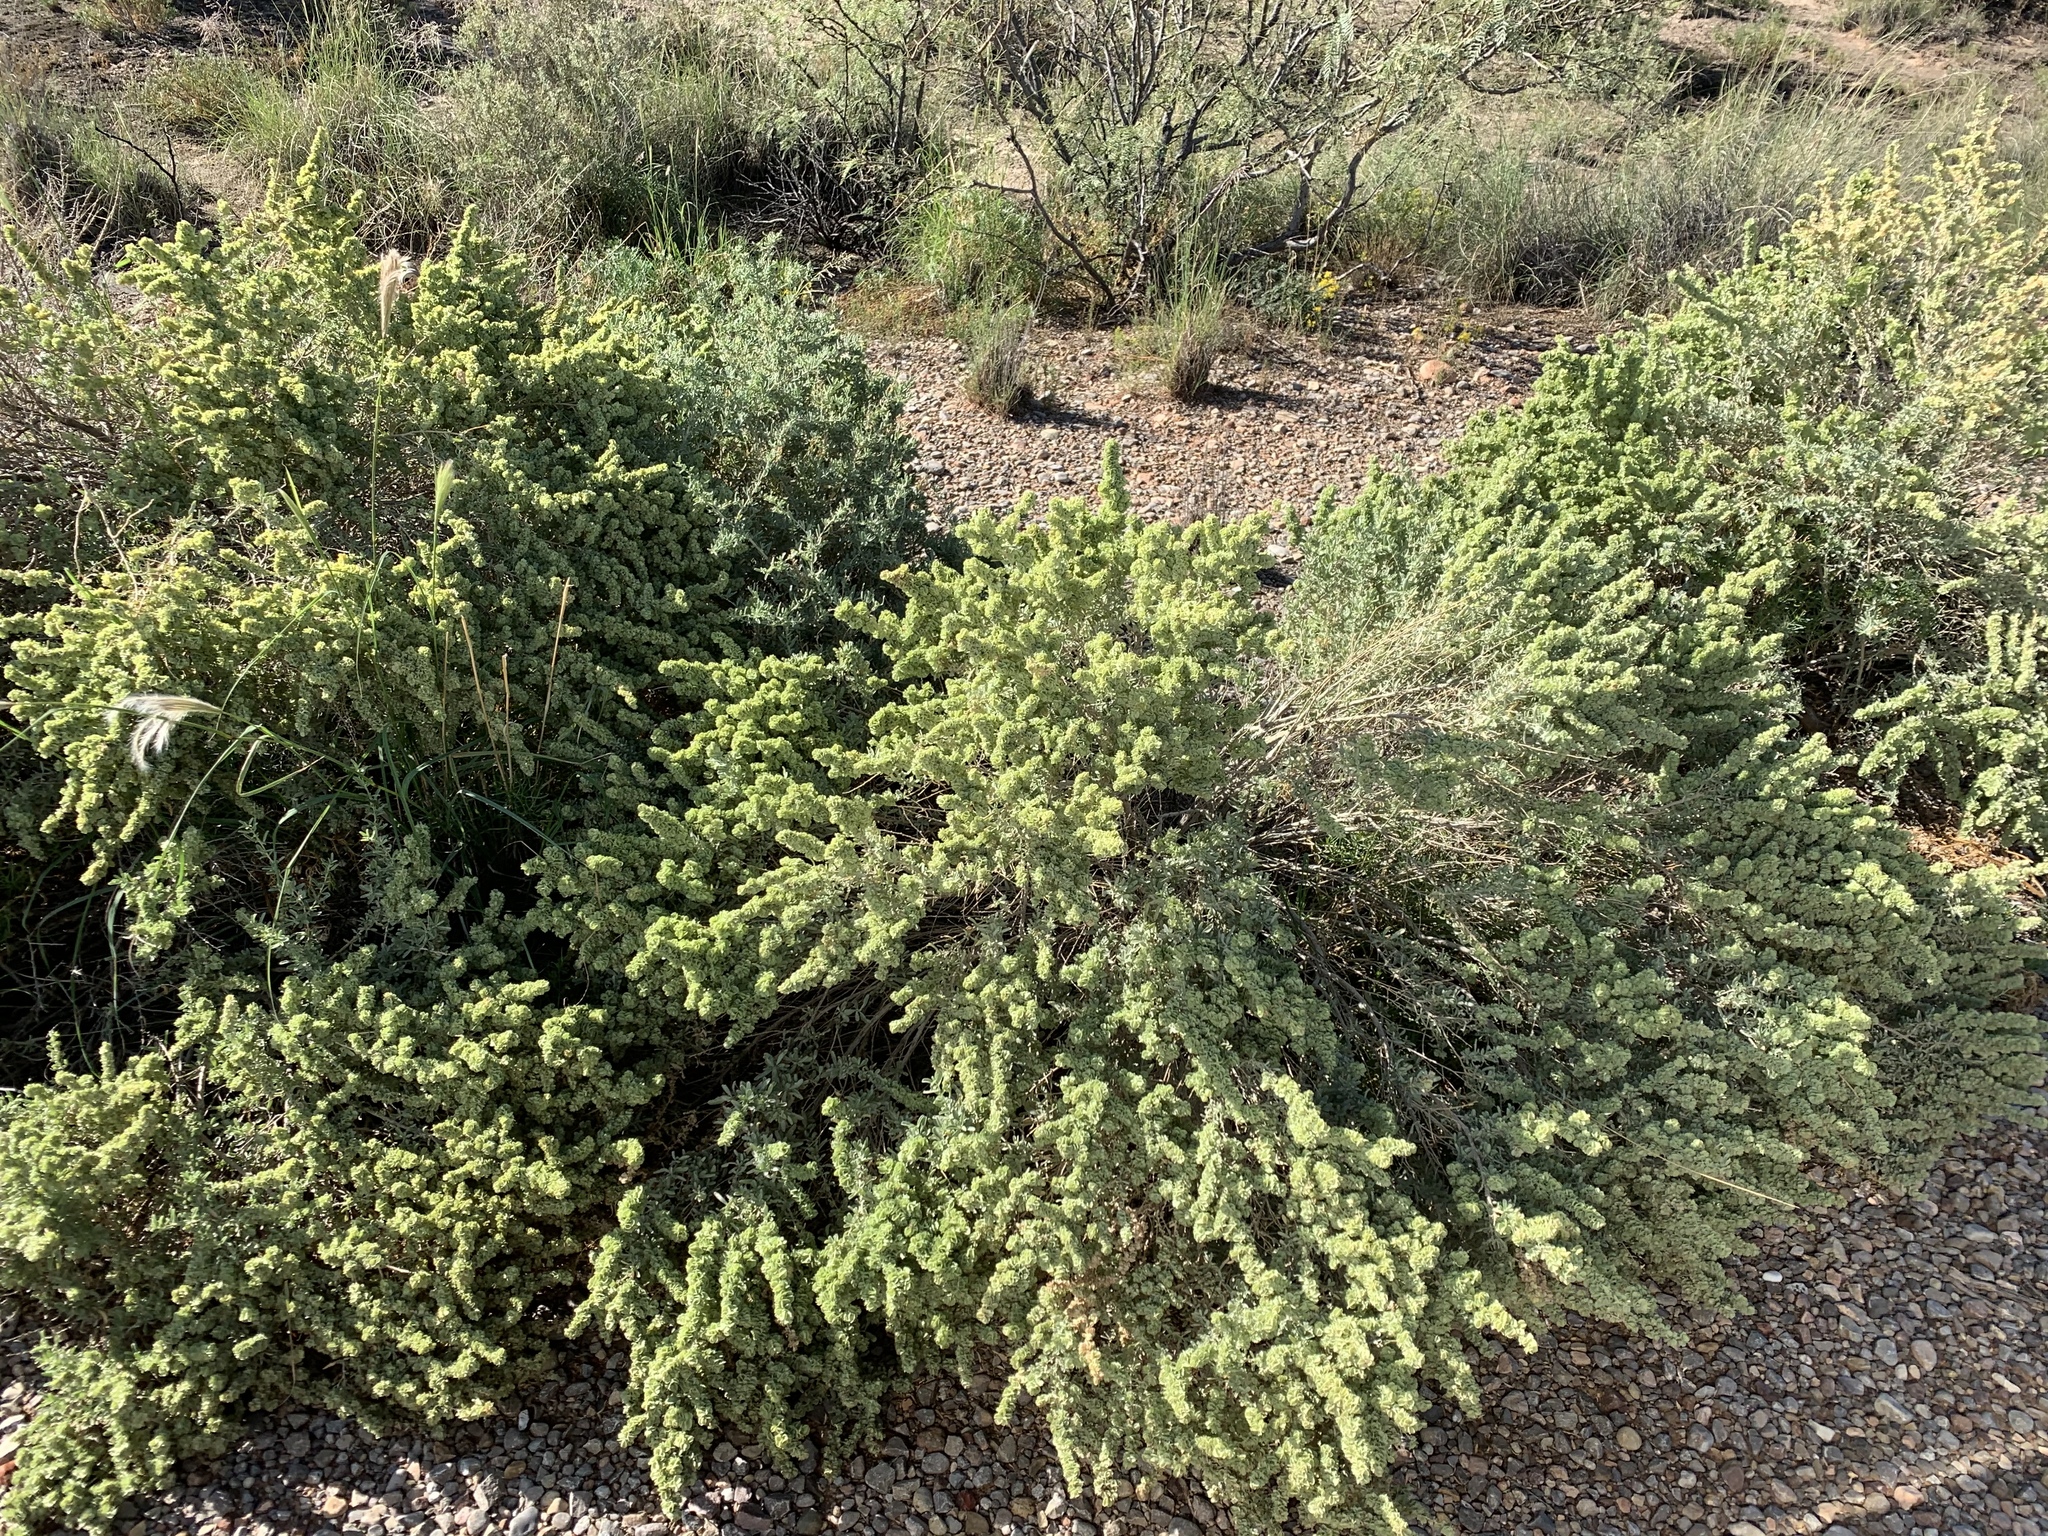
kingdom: Plantae
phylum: Tracheophyta
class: Magnoliopsida
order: Caryophyllales
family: Amaranthaceae
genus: Atriplex
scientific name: Atriplex canescens
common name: Four-wing saltbush
